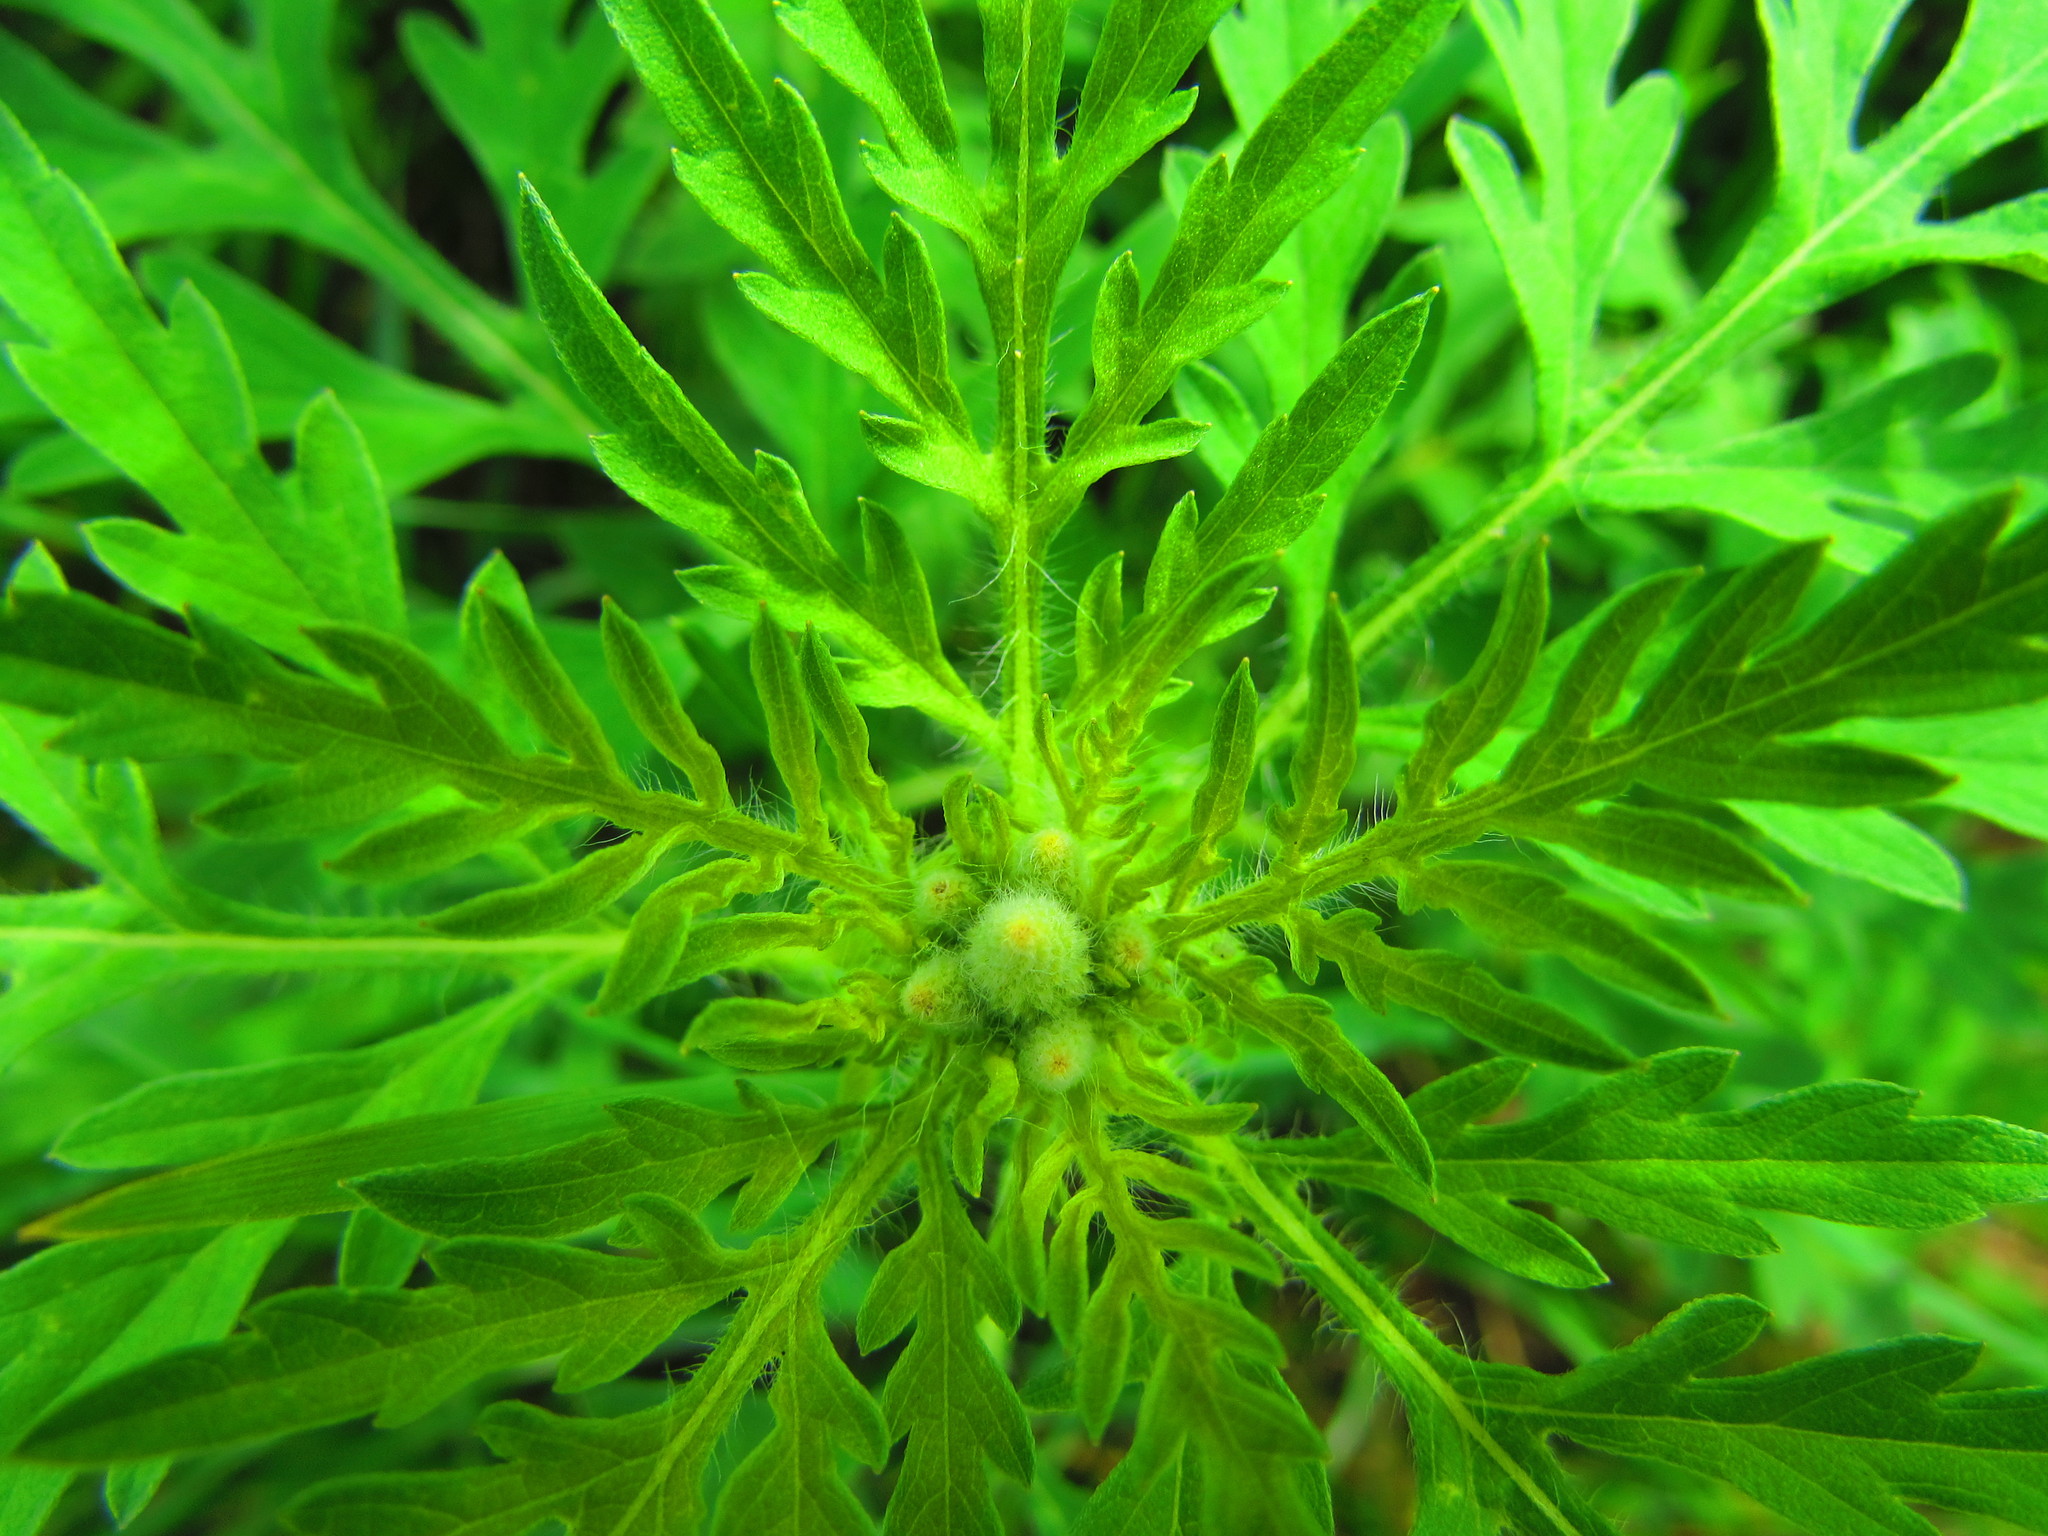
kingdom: Plantae
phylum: Tracheophyta
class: Magnoliopsida
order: Asterales
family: Asteraceae
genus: Ambrosia
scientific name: Ambrosia artemisiifolia
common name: Annual ragweed
